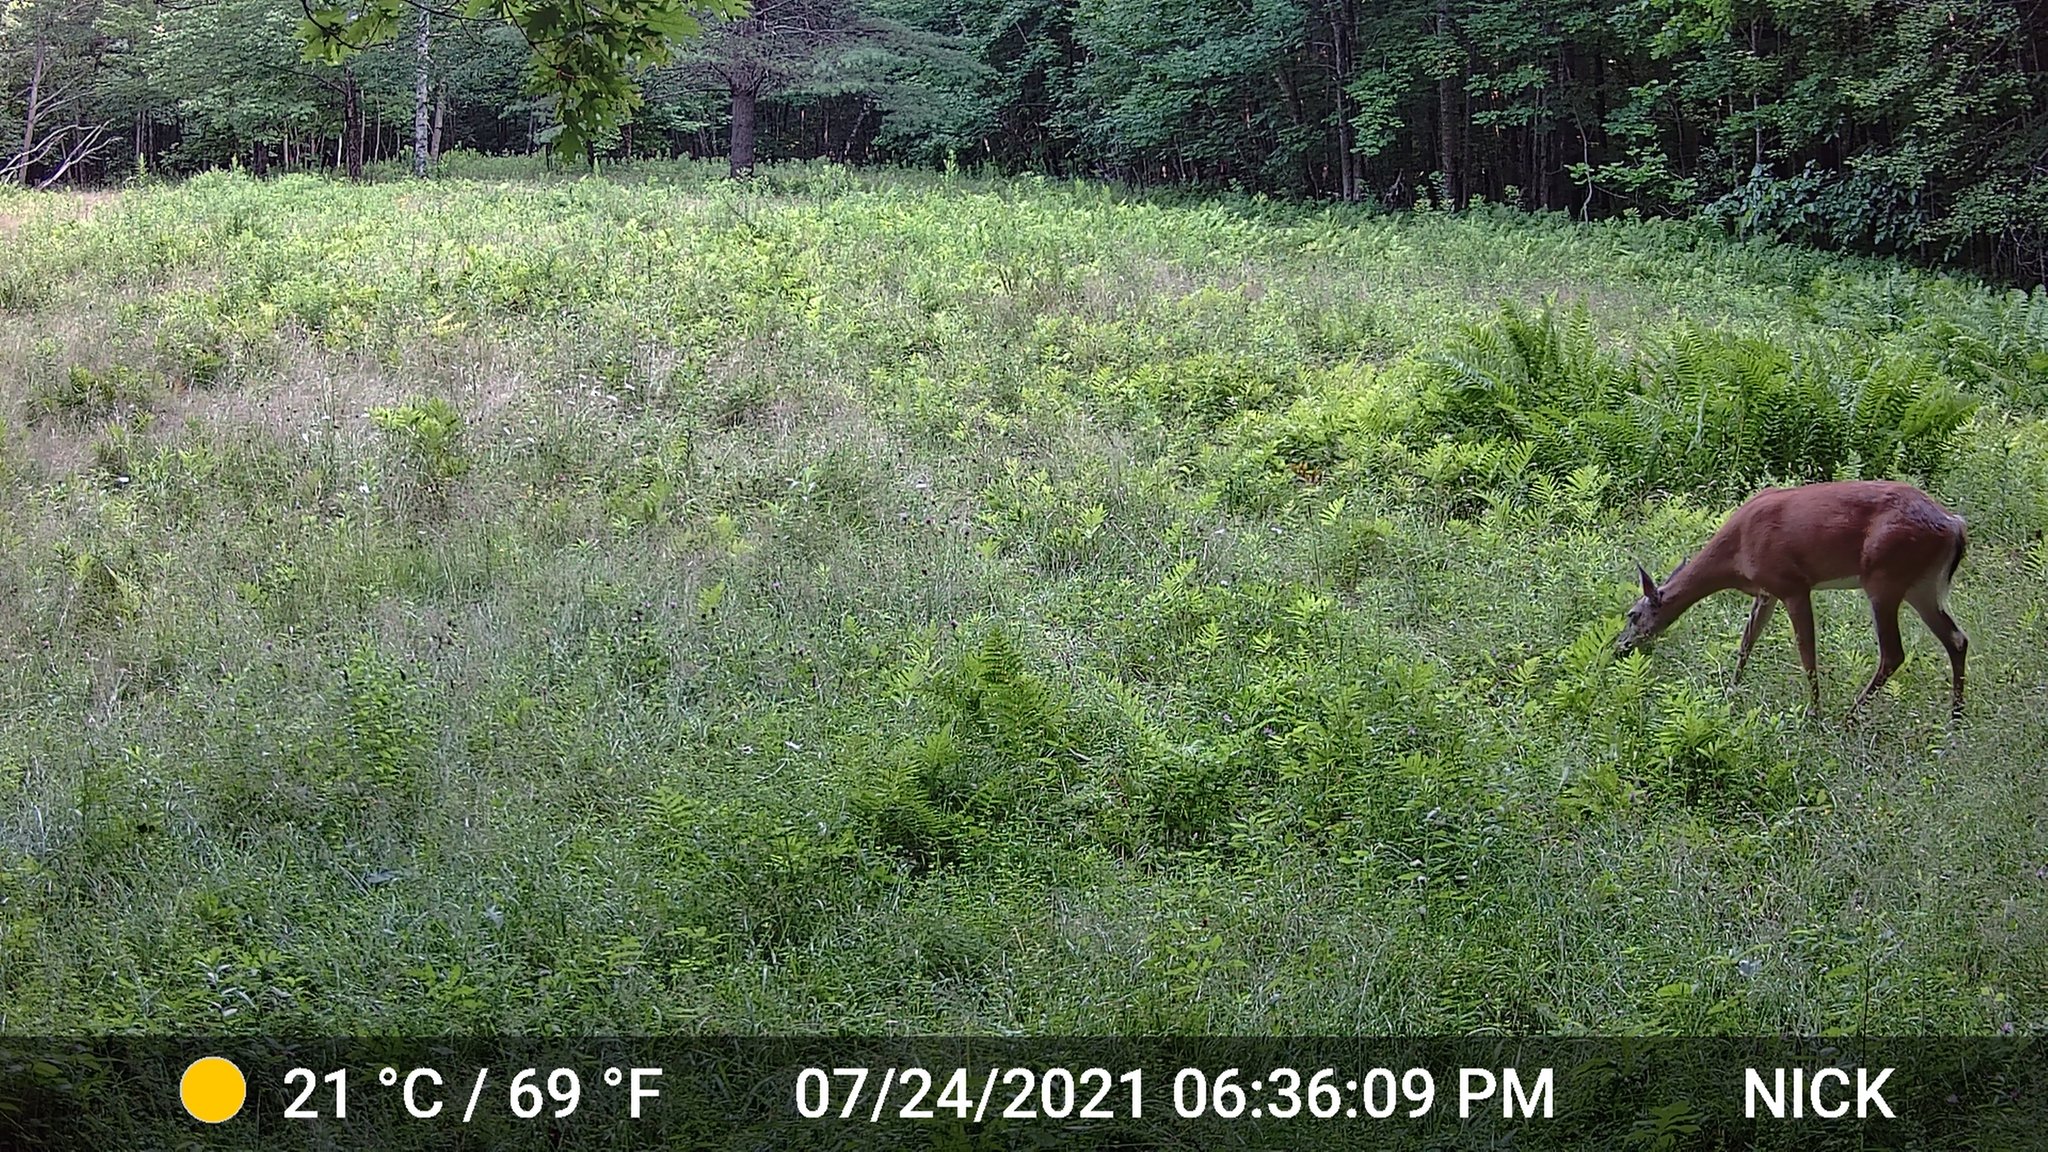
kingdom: Animalia
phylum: Chordata
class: Mammalia
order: Artiodactyla
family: Cervidae
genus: Odocoileus
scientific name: Odocoileus virginianus
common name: White-tailed deer
